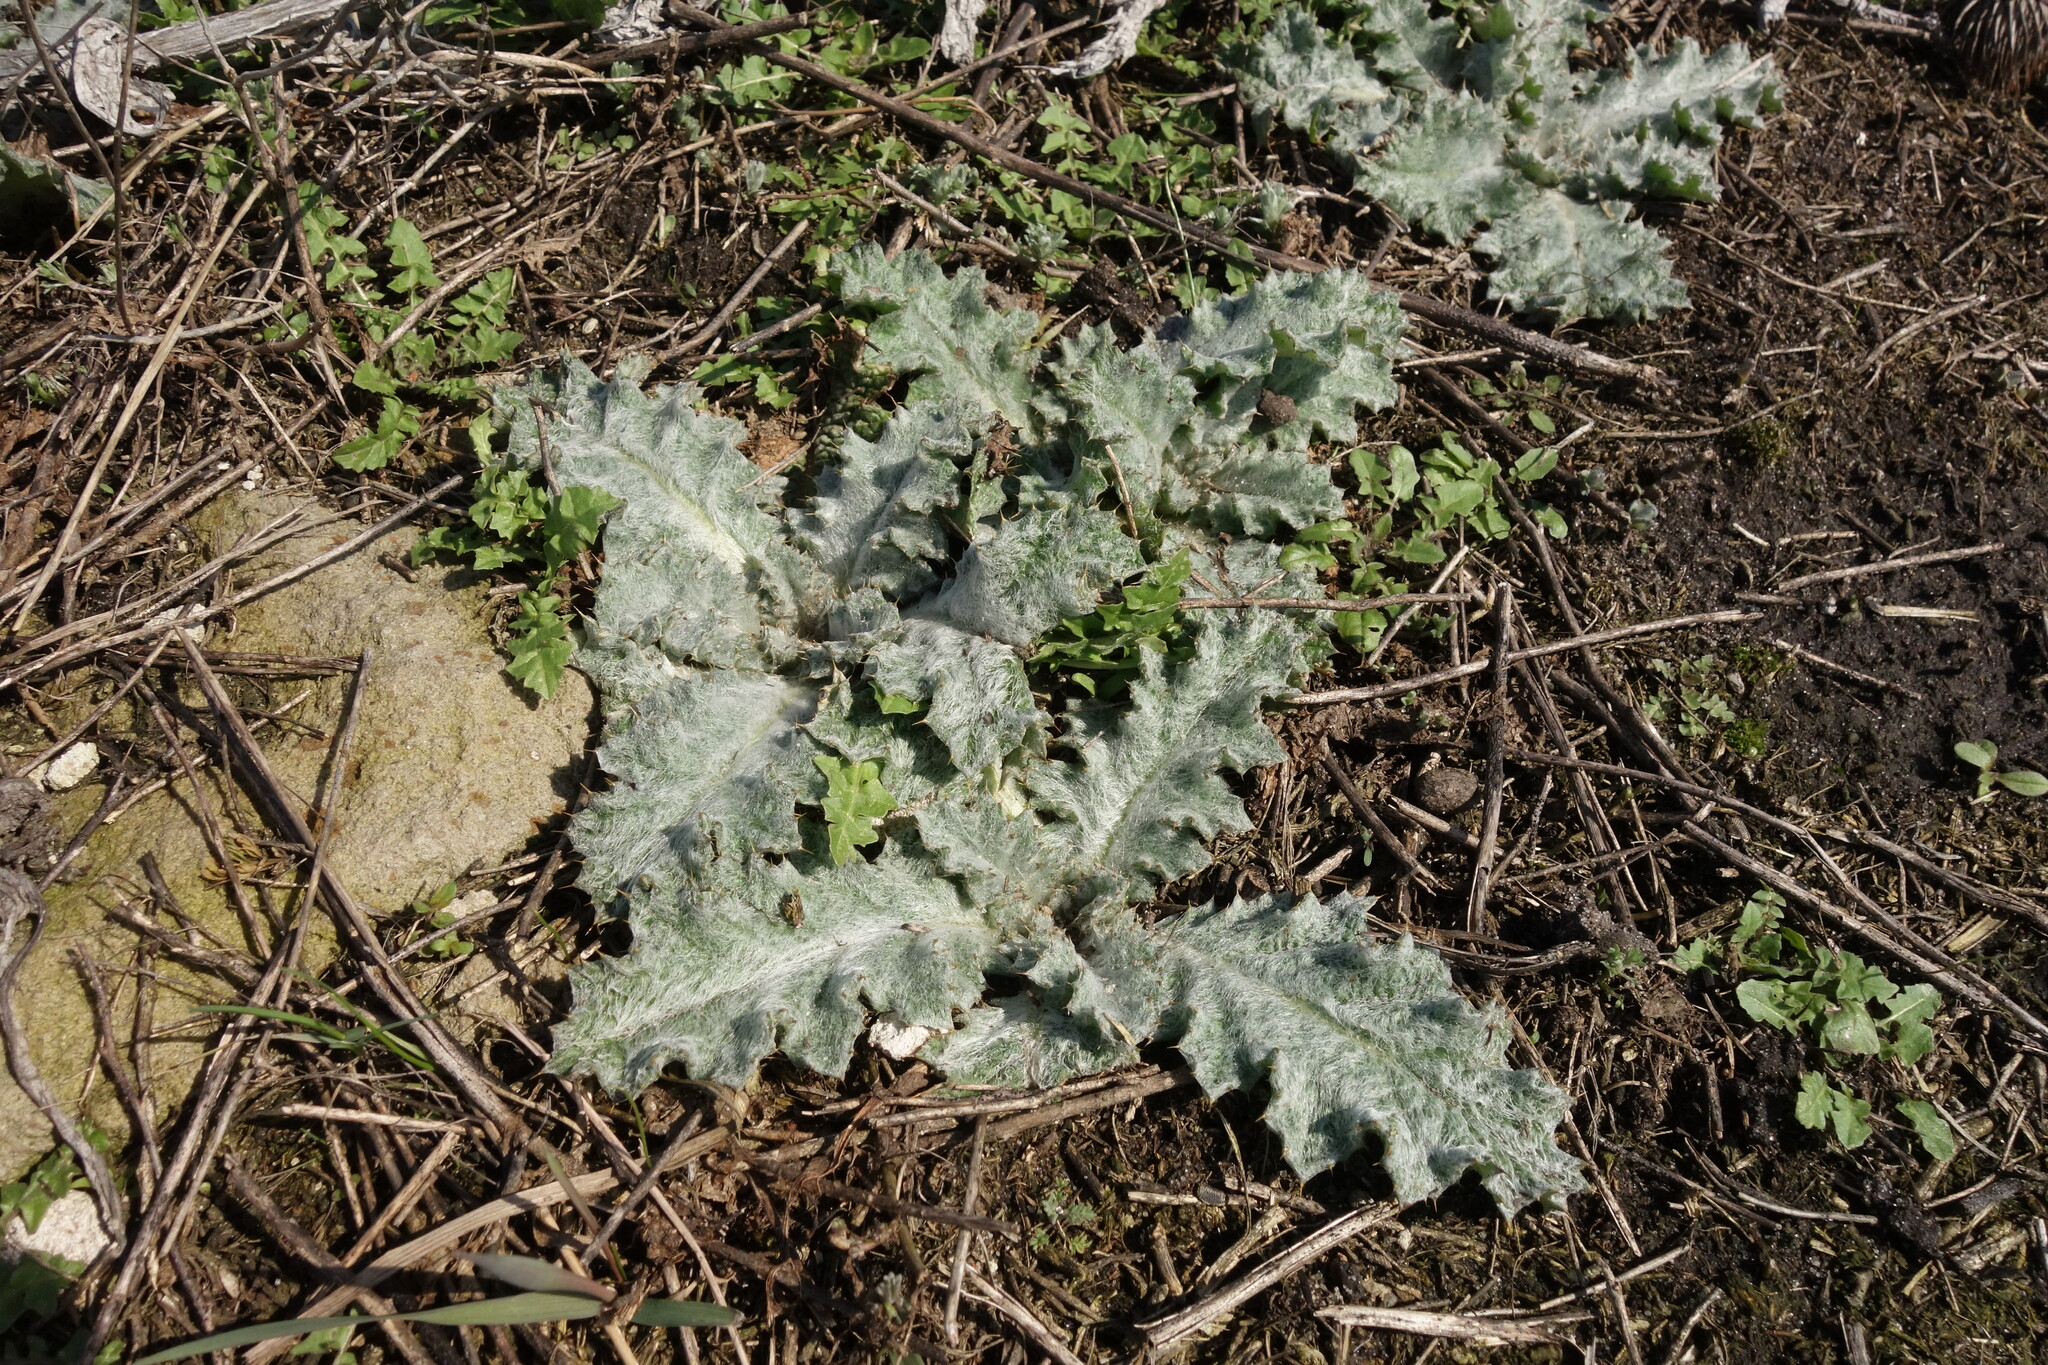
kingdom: Plantae
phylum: Tracheophyta
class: Magnoliopsida
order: Asterales
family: Asteraceae
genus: Onopordum
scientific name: Onopordum acanthium
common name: Scotch thistle
